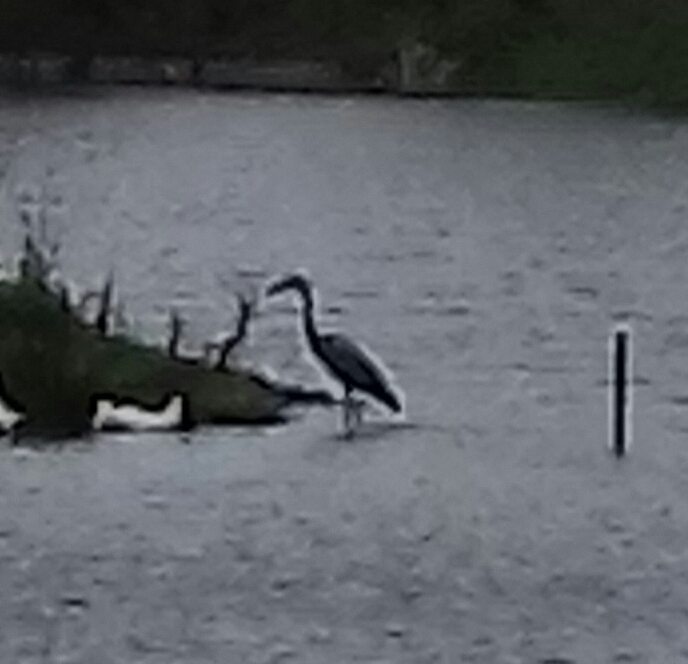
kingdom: Animalia
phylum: Chordata
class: Aves
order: Pelecaniformes
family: Ardeidae
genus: Ardea
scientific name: Ardea cinerea
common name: Grey heron
